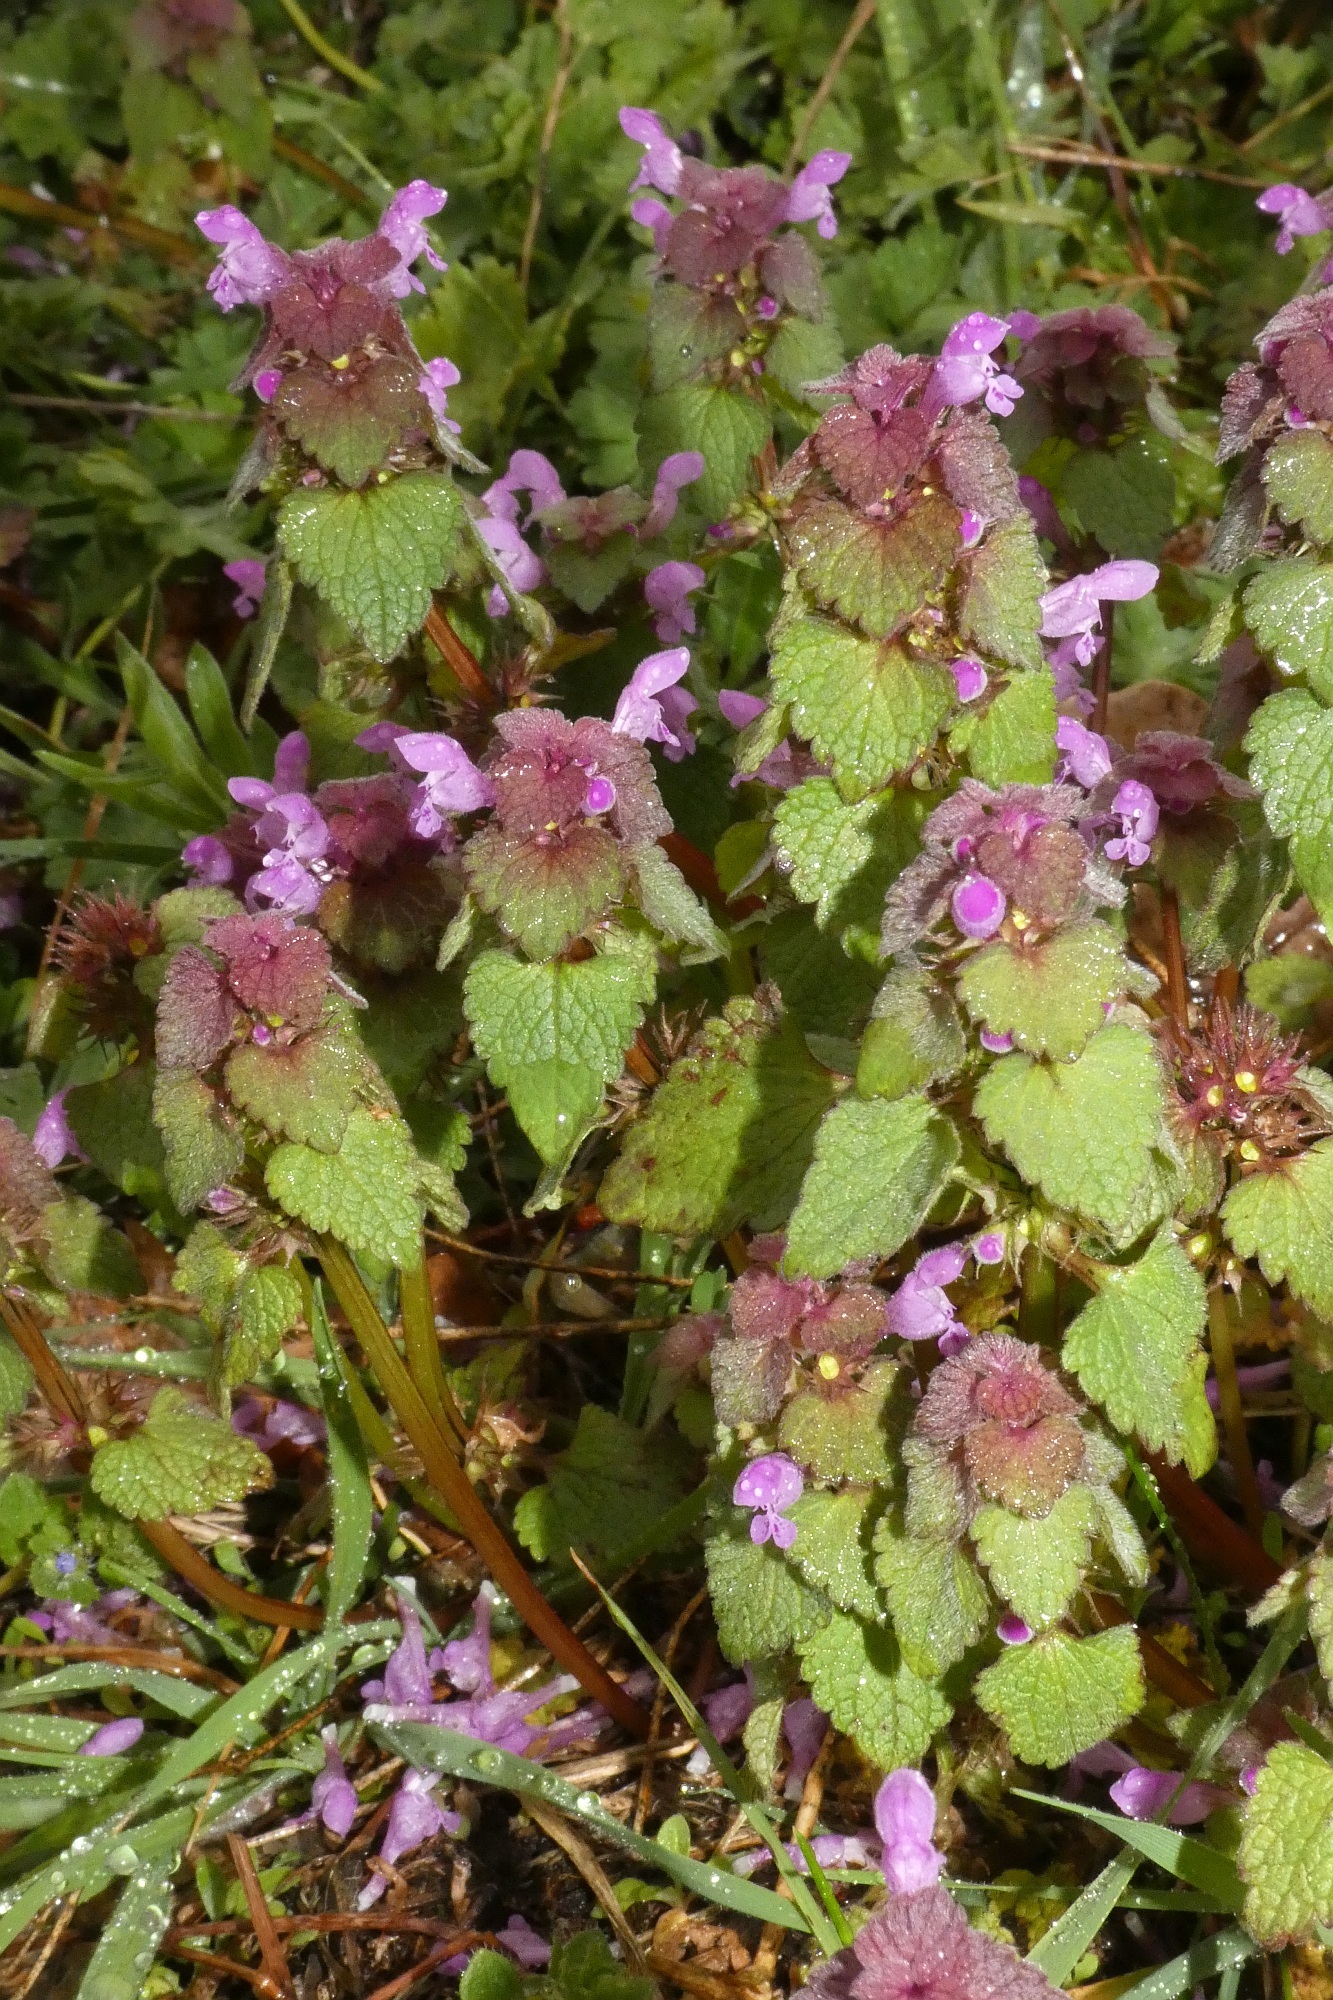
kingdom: Plantae
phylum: Tracheophyta
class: Magnoliopsida
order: Lamiales
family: Lamiaceae
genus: Lamium
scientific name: Lamium purpureum
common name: Red dead-nettle
